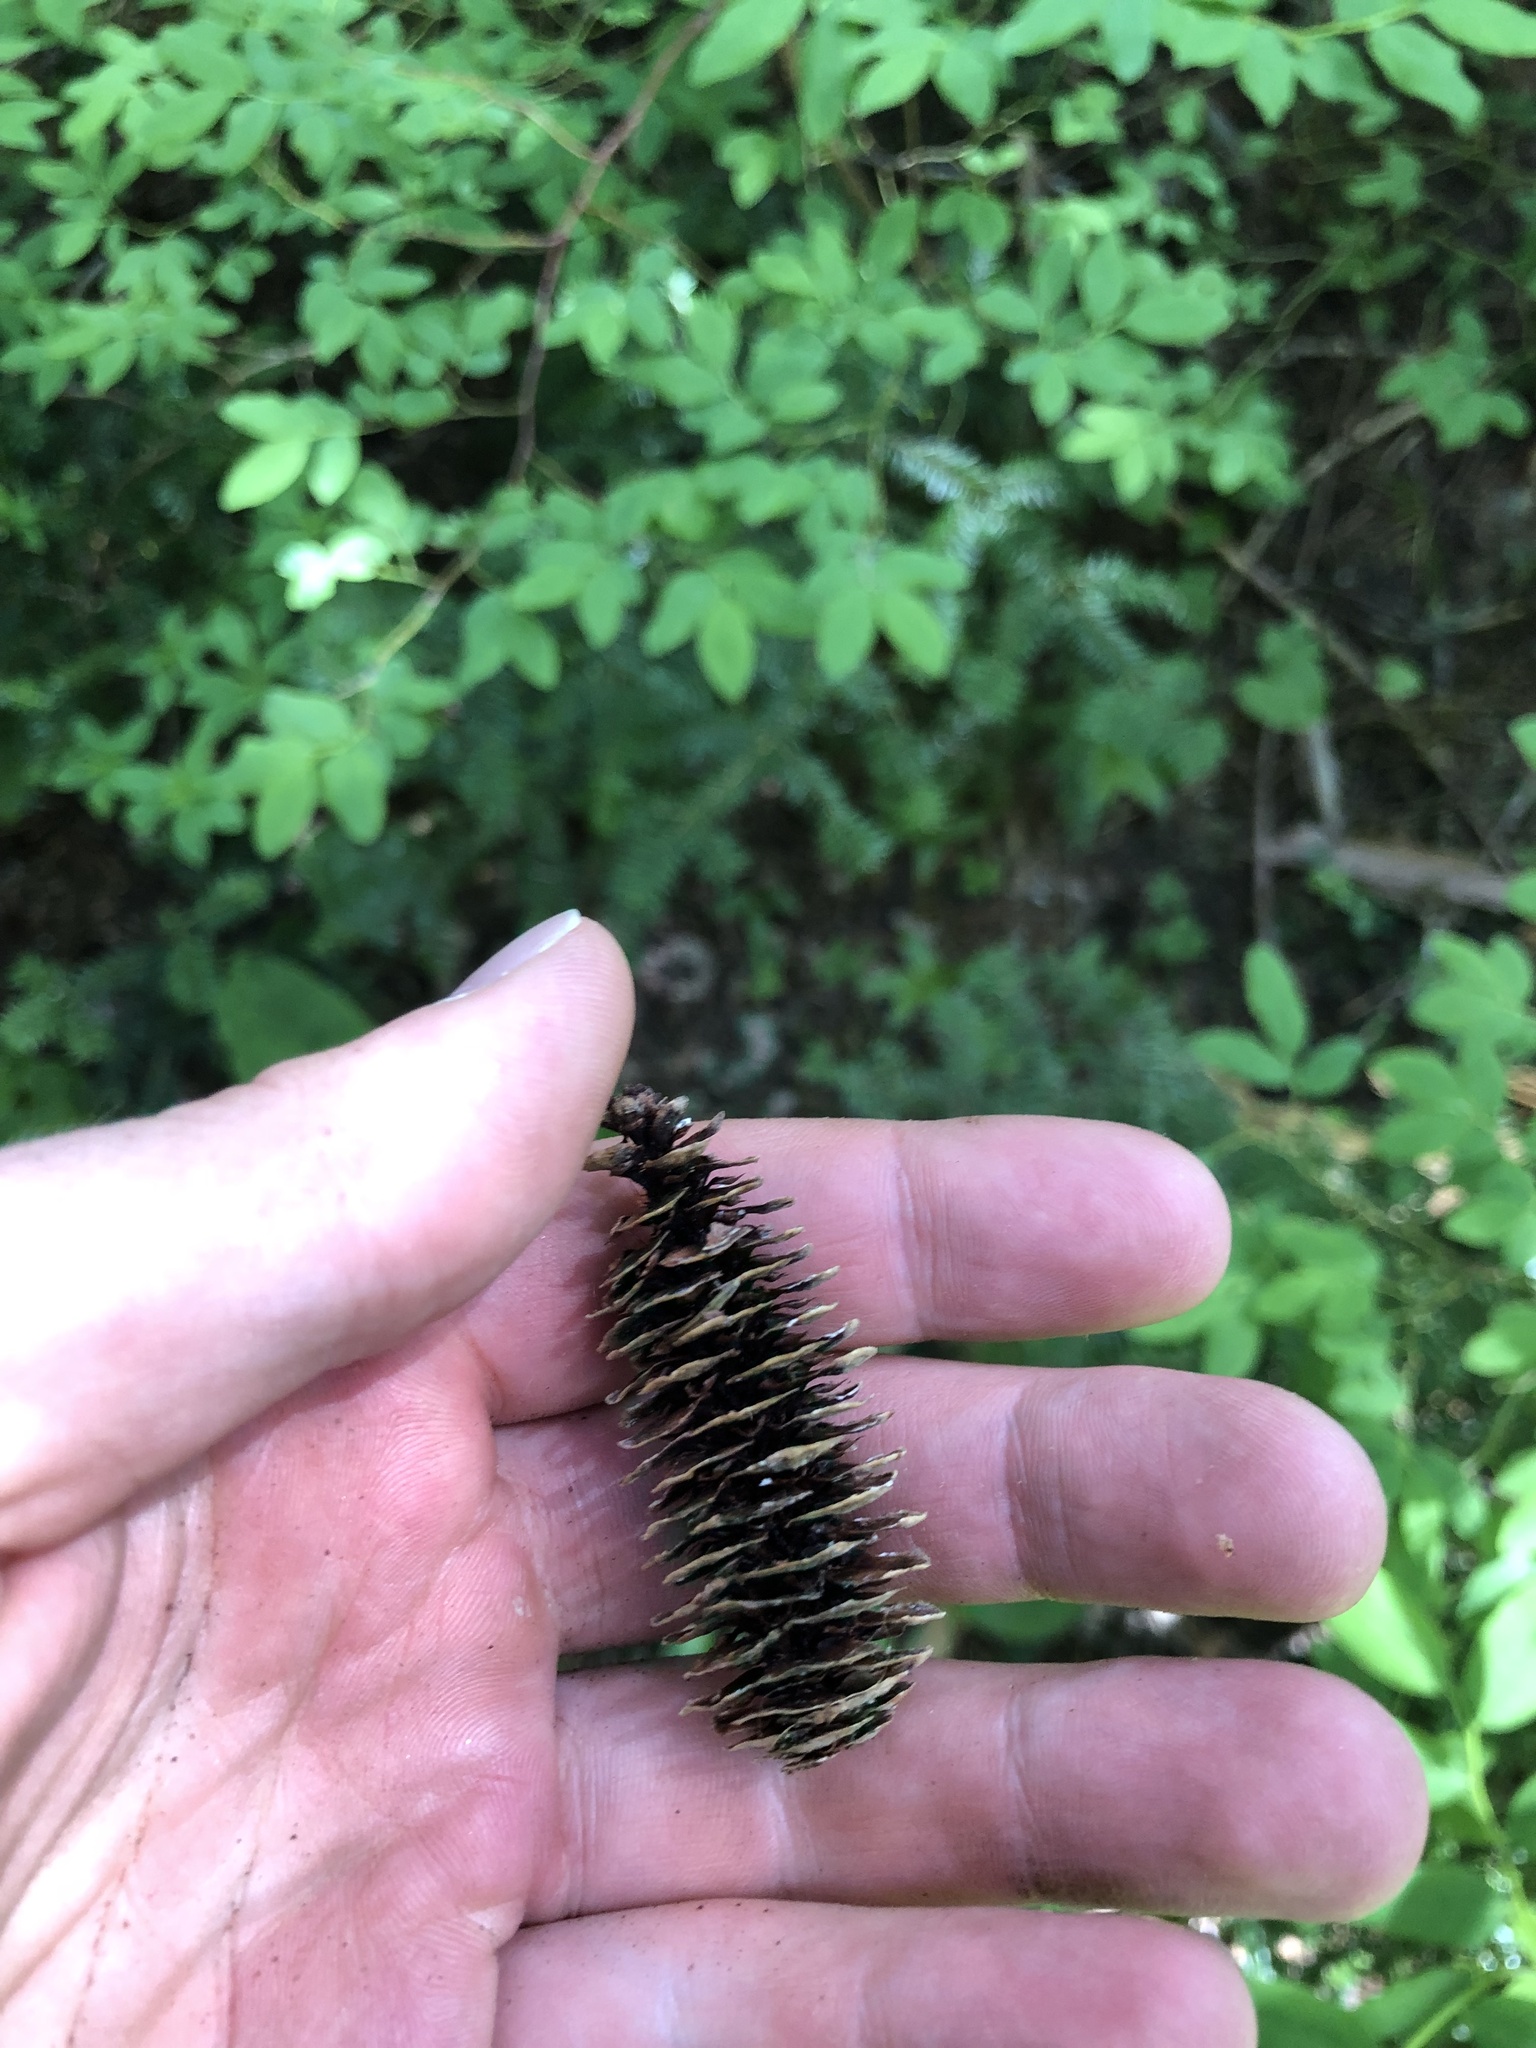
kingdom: Plantae
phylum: Tracheophyta
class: Pinopsida
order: Pinales
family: Pinaceae
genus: Tsuga
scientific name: Tsuga mertensiana
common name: Mountain hemlock
